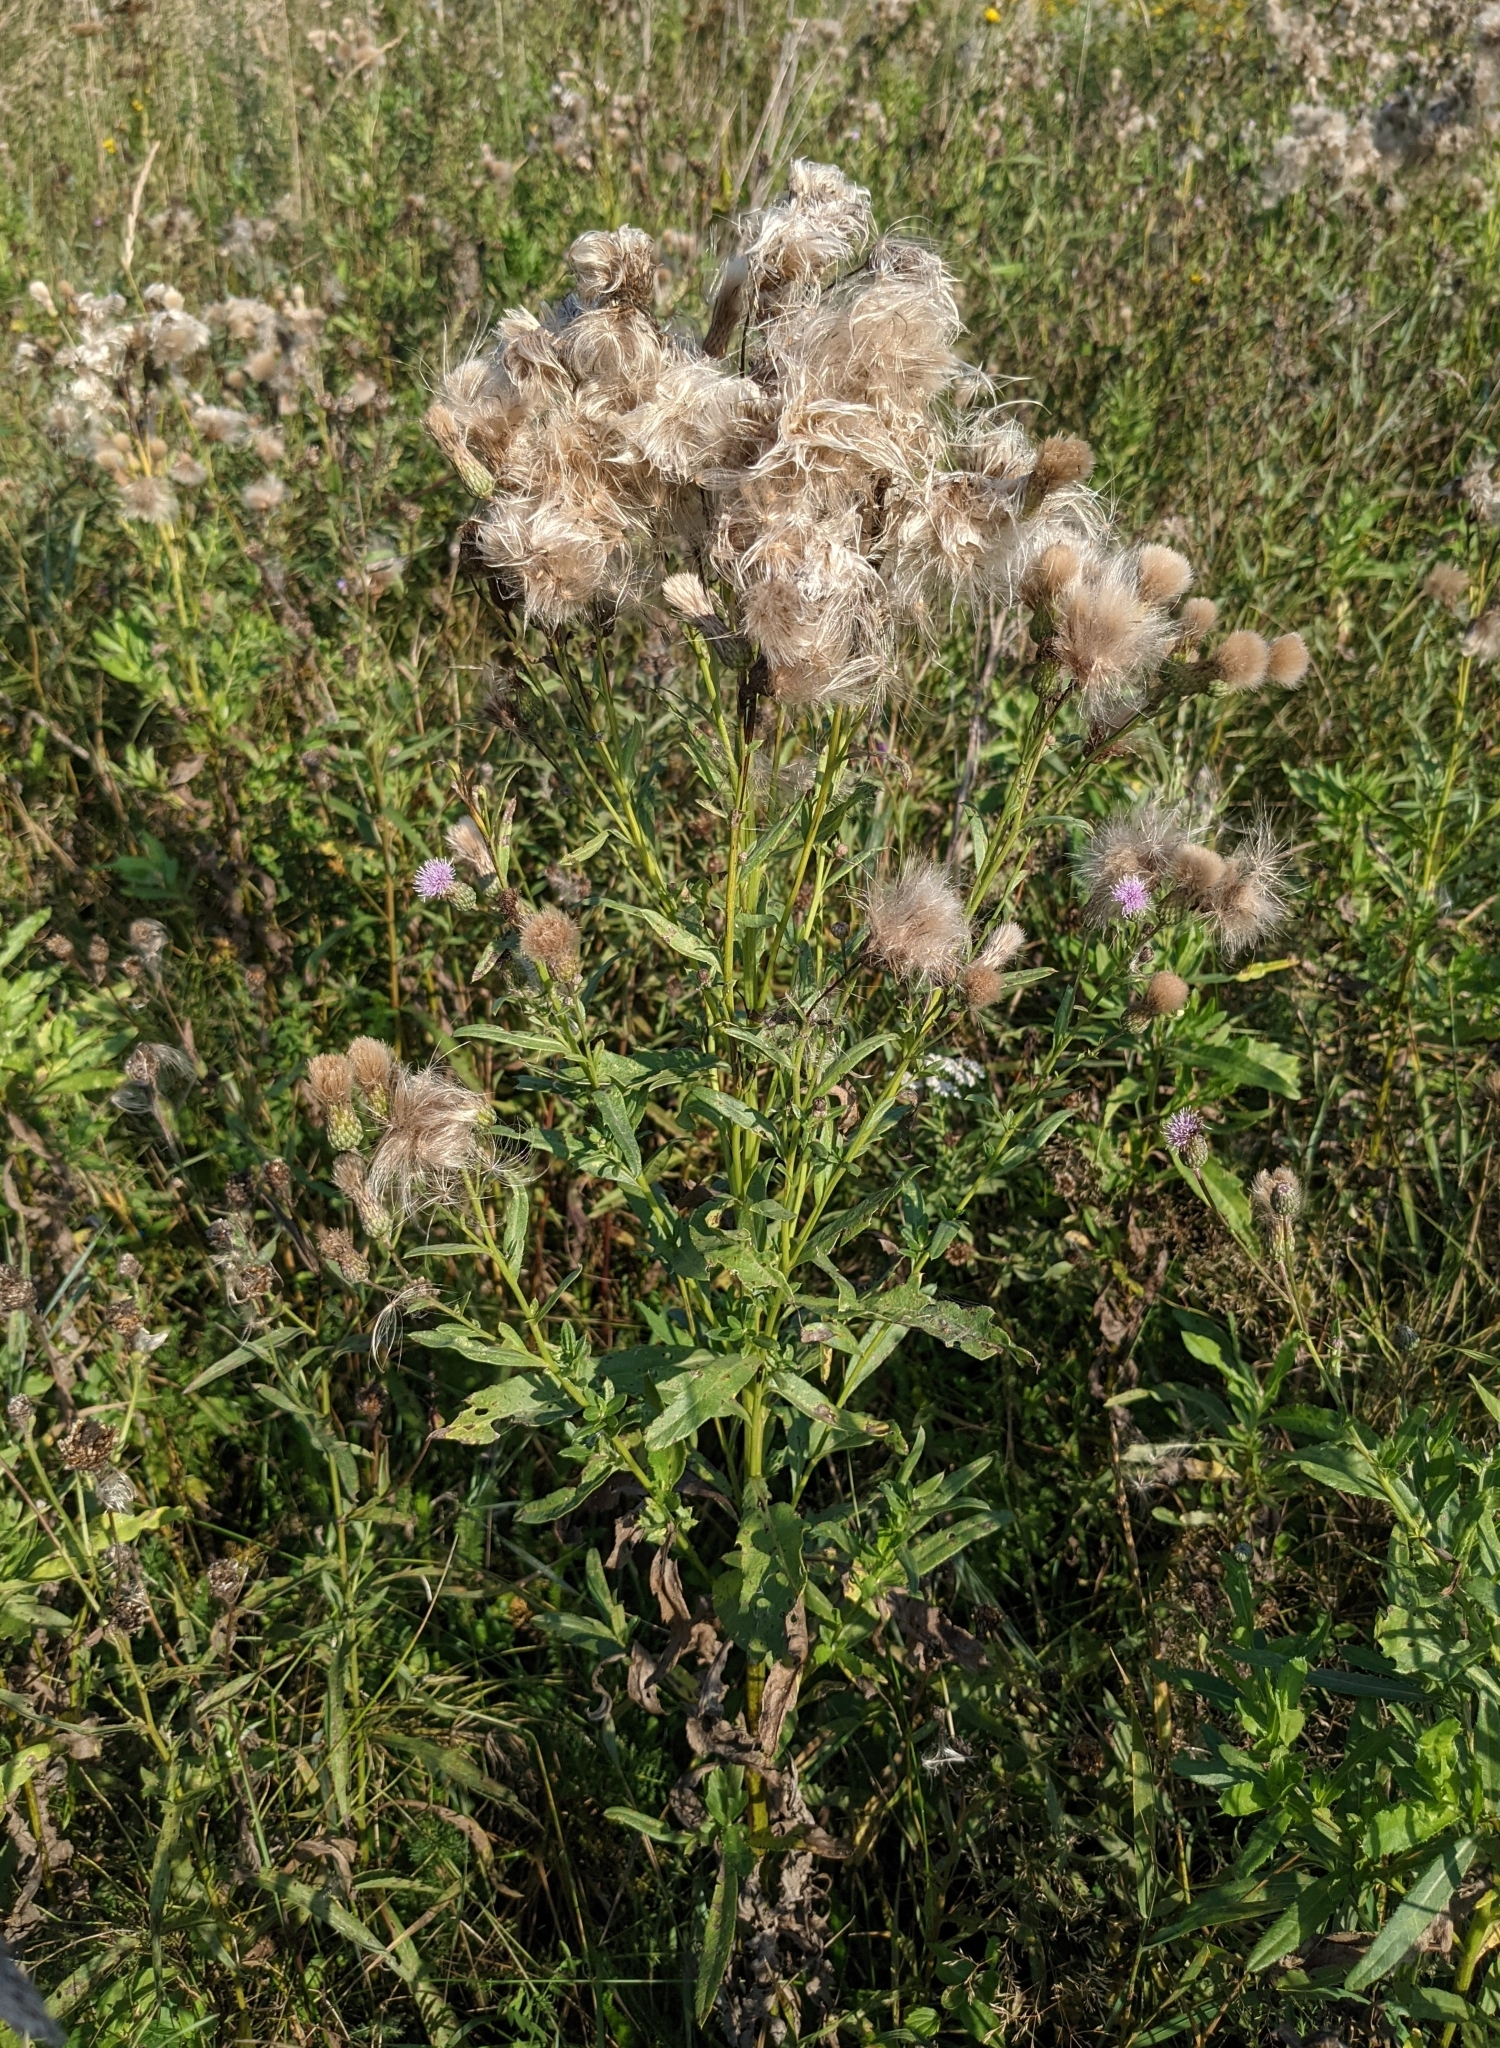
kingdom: Plantae
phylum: Tracheophyta
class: Magnoliopsida
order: Asterales
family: Asteraceae
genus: Cirsium
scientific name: Cirsium arvense
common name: Creeping thistle
